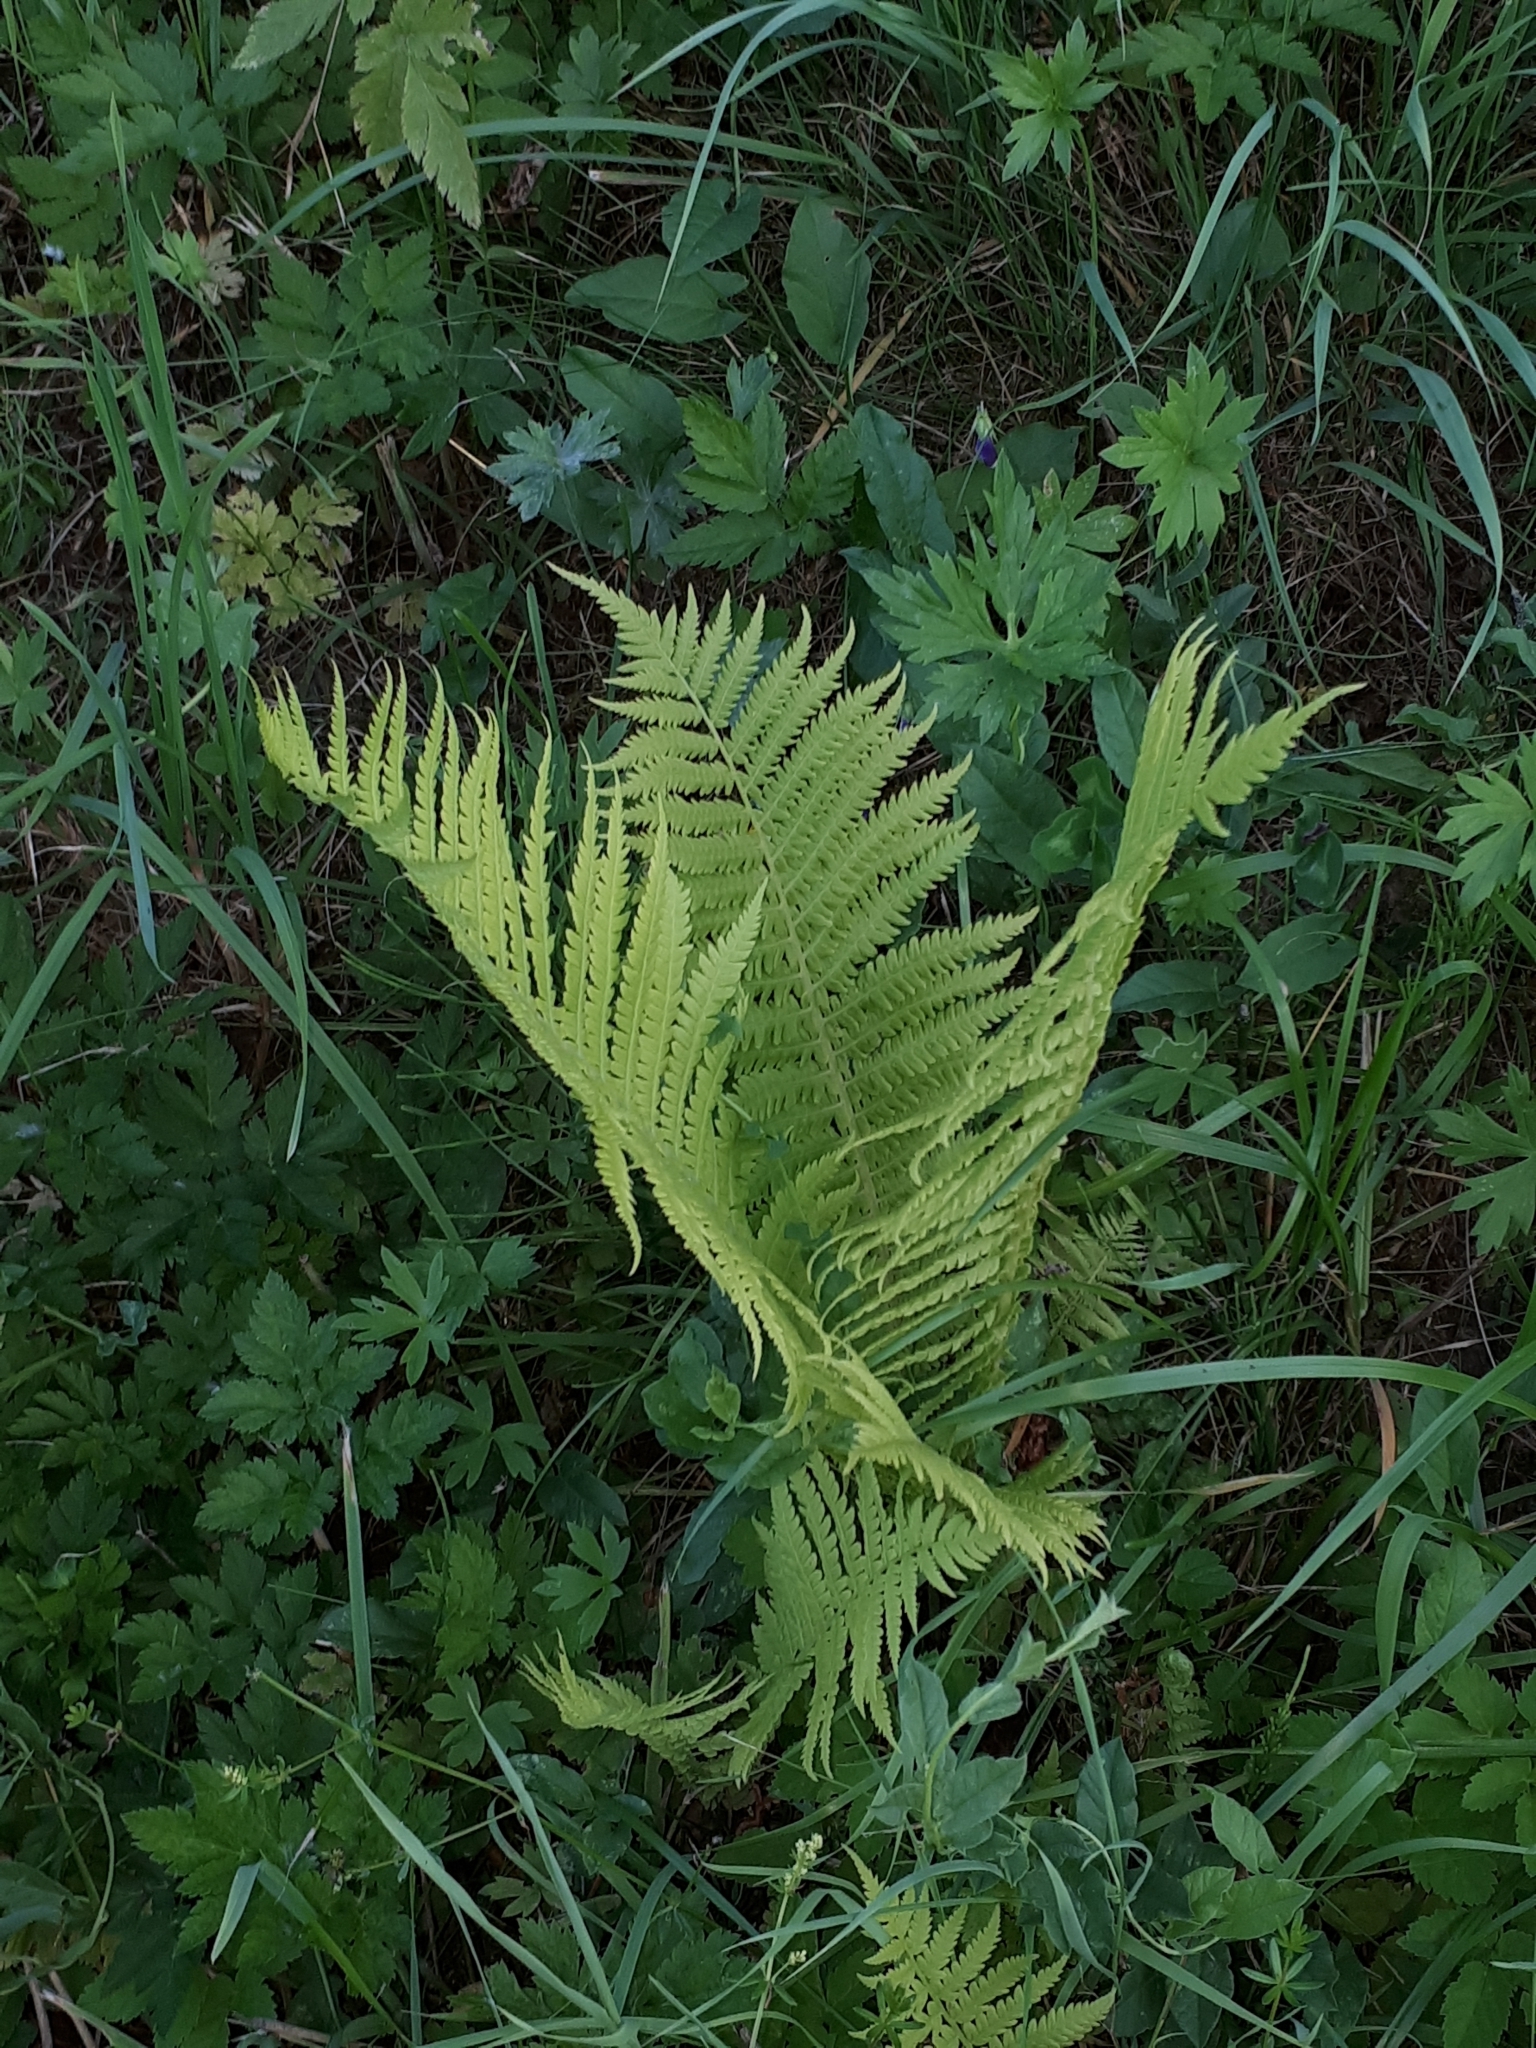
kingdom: Plantae
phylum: Tracheophyta
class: Polypodiopsida
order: Polypodiales
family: Onocleaceae
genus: Matteuccia
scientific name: Matteuccia struthiopteris
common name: Ostrich fern
